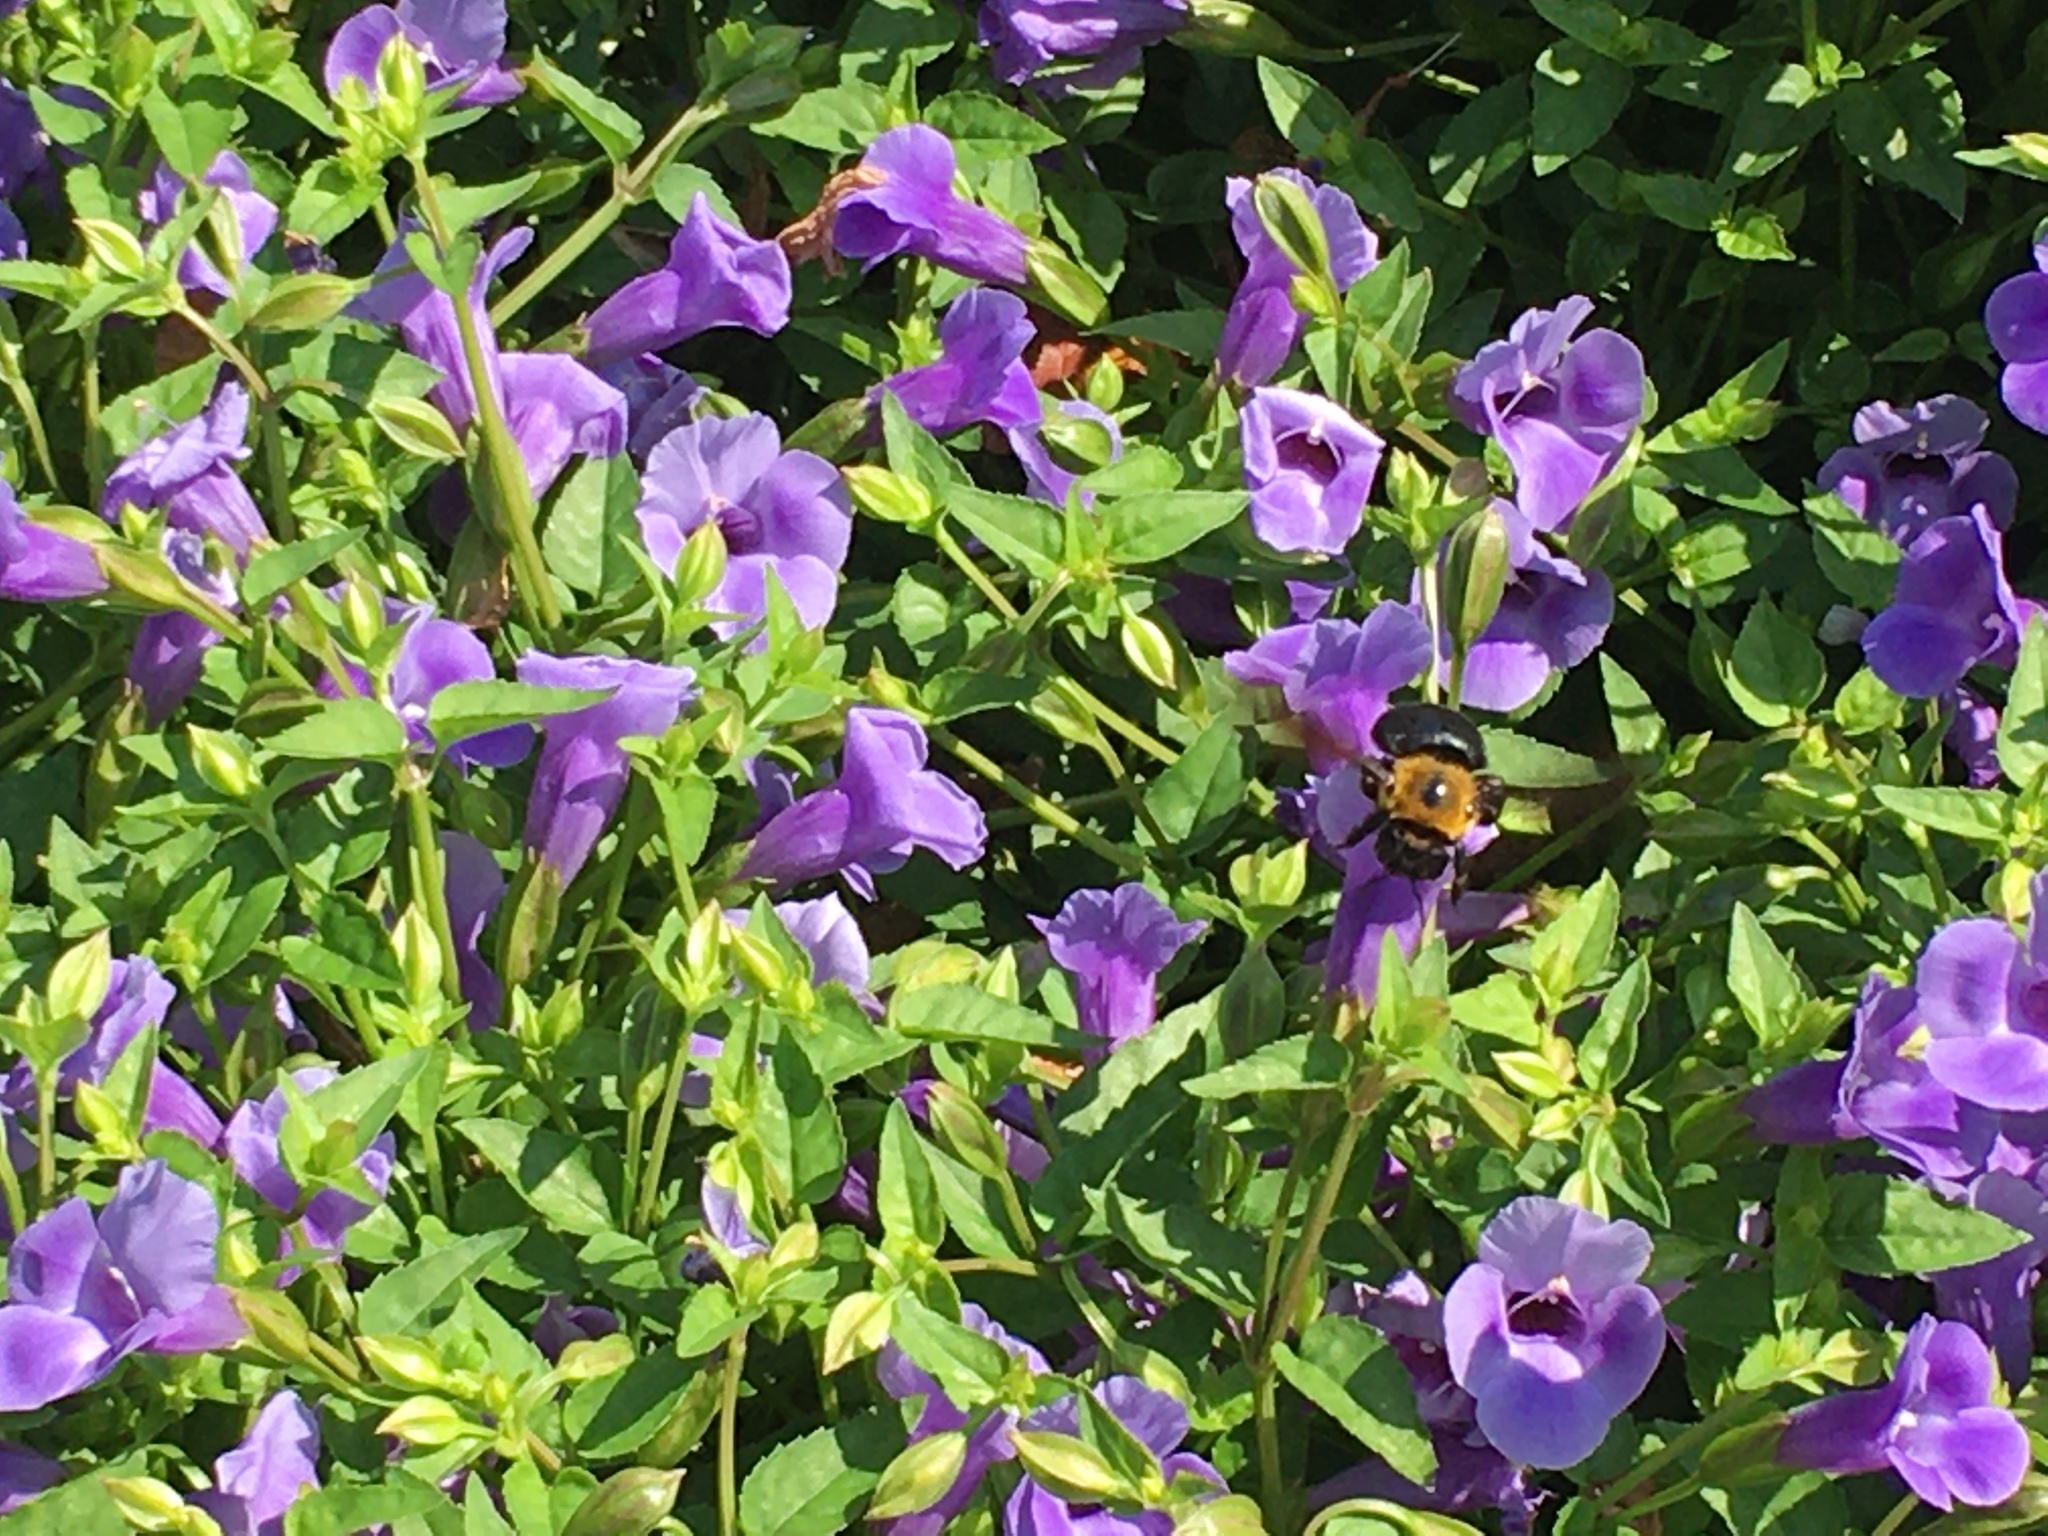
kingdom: Animalia
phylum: Arthropoda
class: Insecta
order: Hymenoptera
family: Apidae
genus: Xylocopa
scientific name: Xylocopa appendiculata
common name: Japanese carpenter bee
